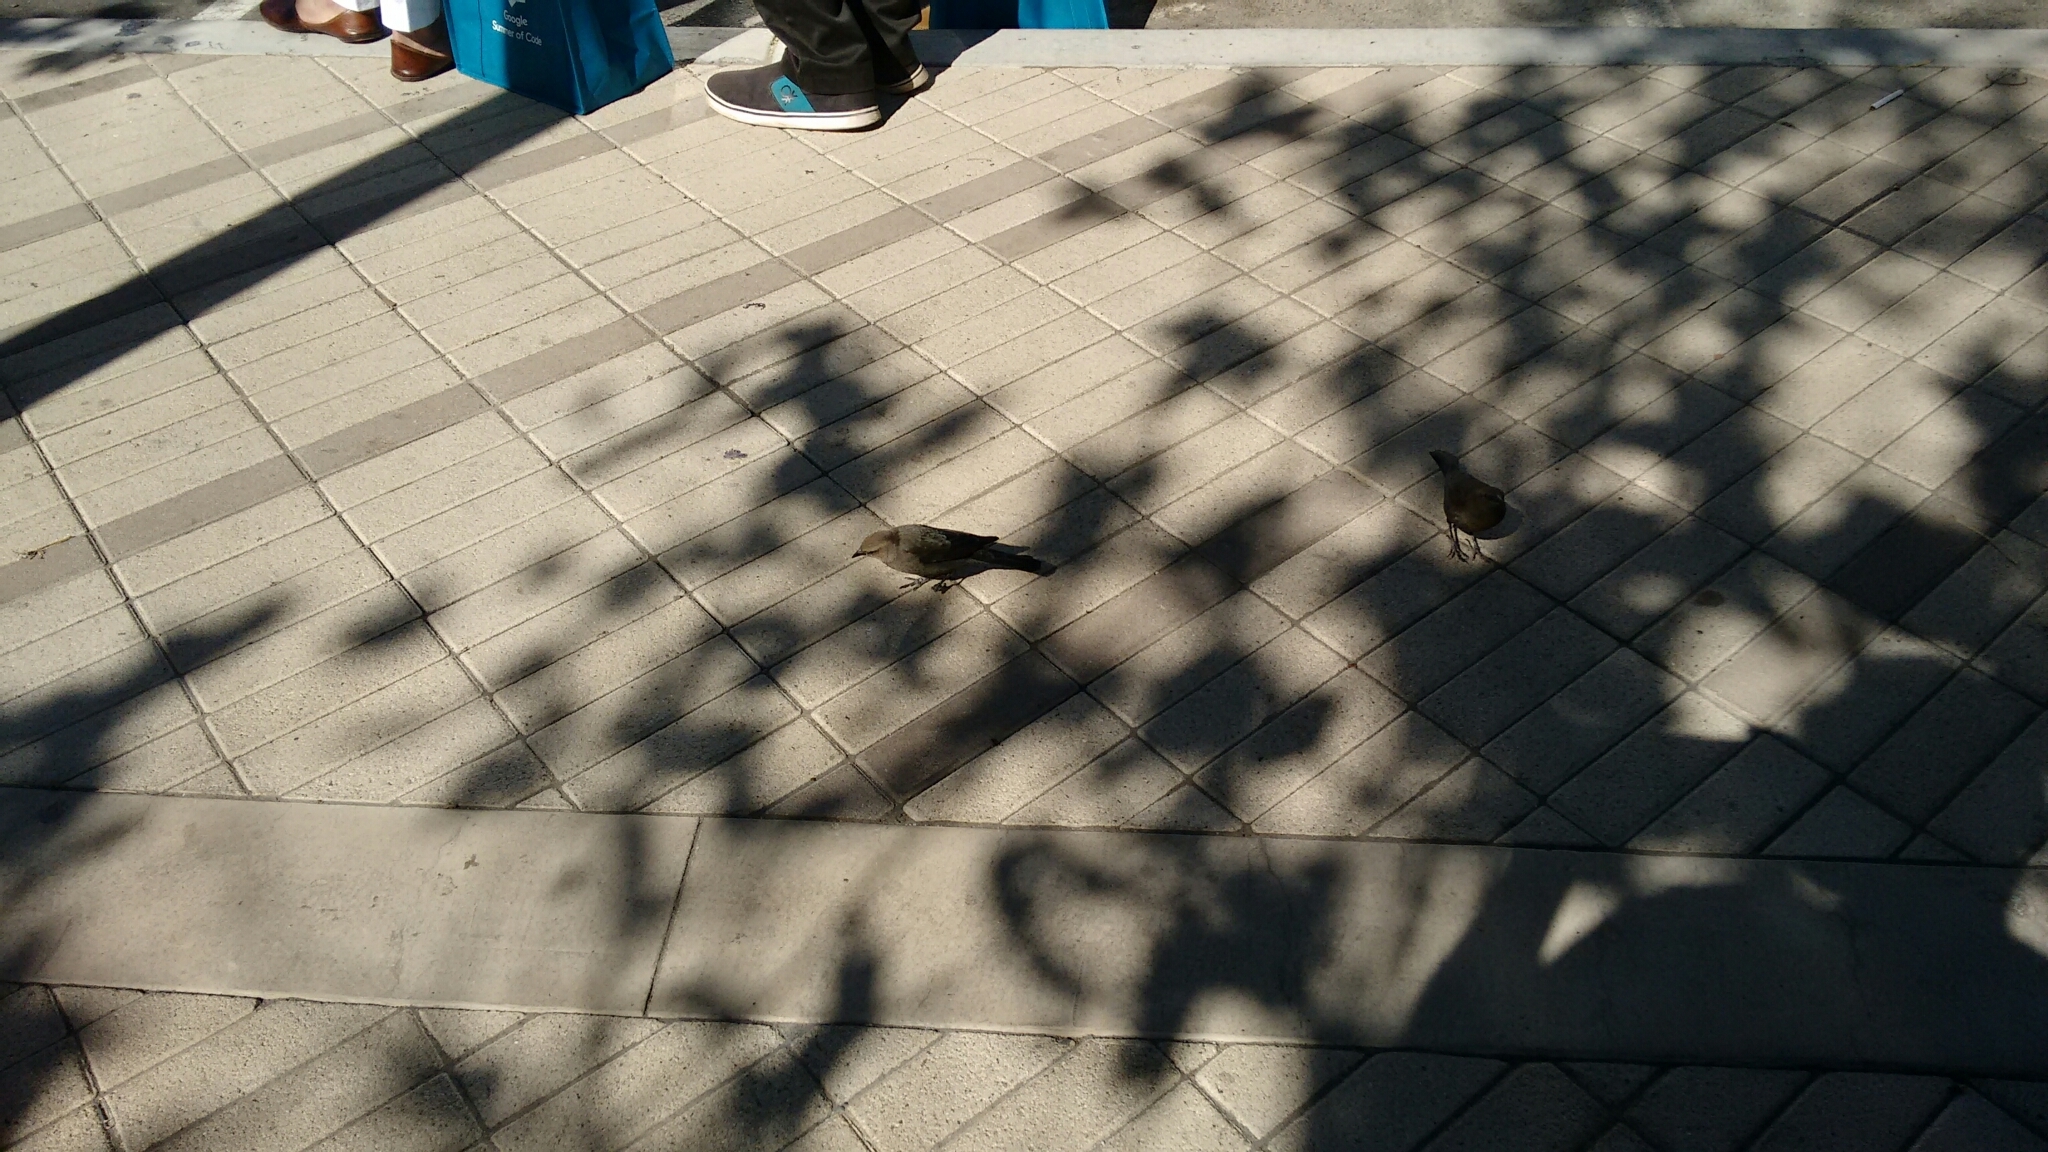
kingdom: Animalia
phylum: Chordata
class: Aves
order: Passeriformes
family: Icteridae
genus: Euphagus
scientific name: Euphagus cyanocephalus
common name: Brewer's blackbird
